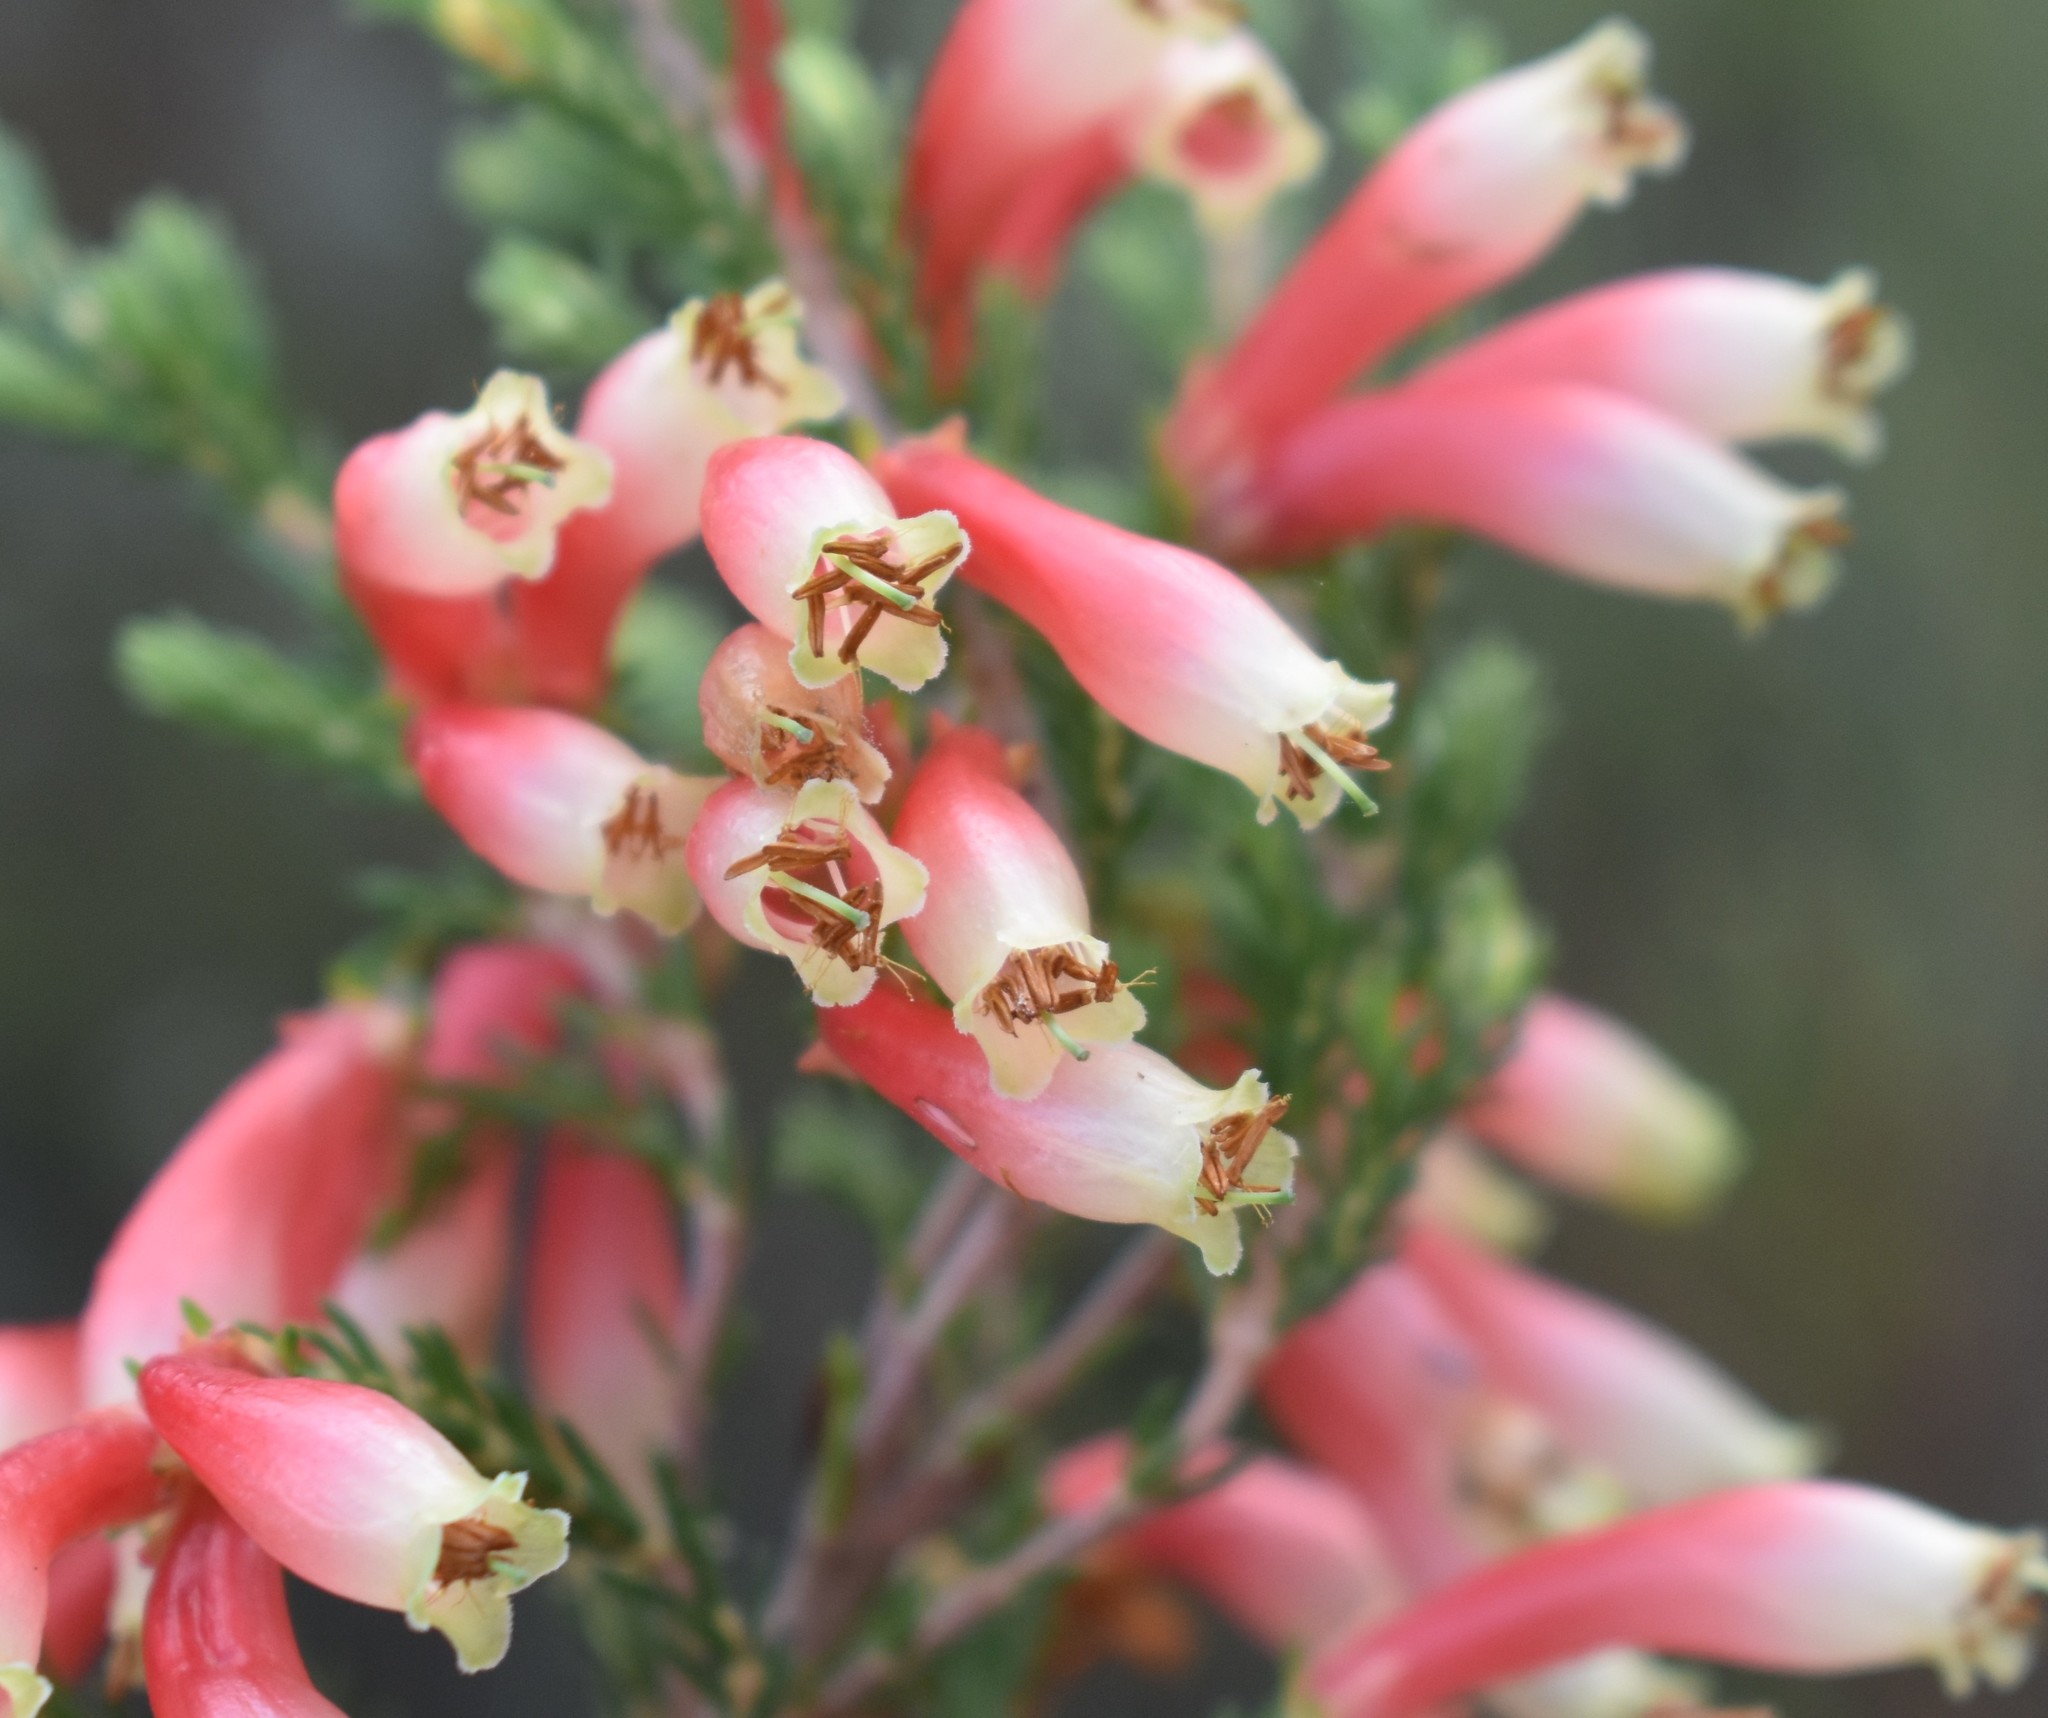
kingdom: Plantae
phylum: Tracheophyta
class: Magnoliopsida
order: Ericales
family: Ericaceae
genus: Erica
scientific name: Erica discolor
